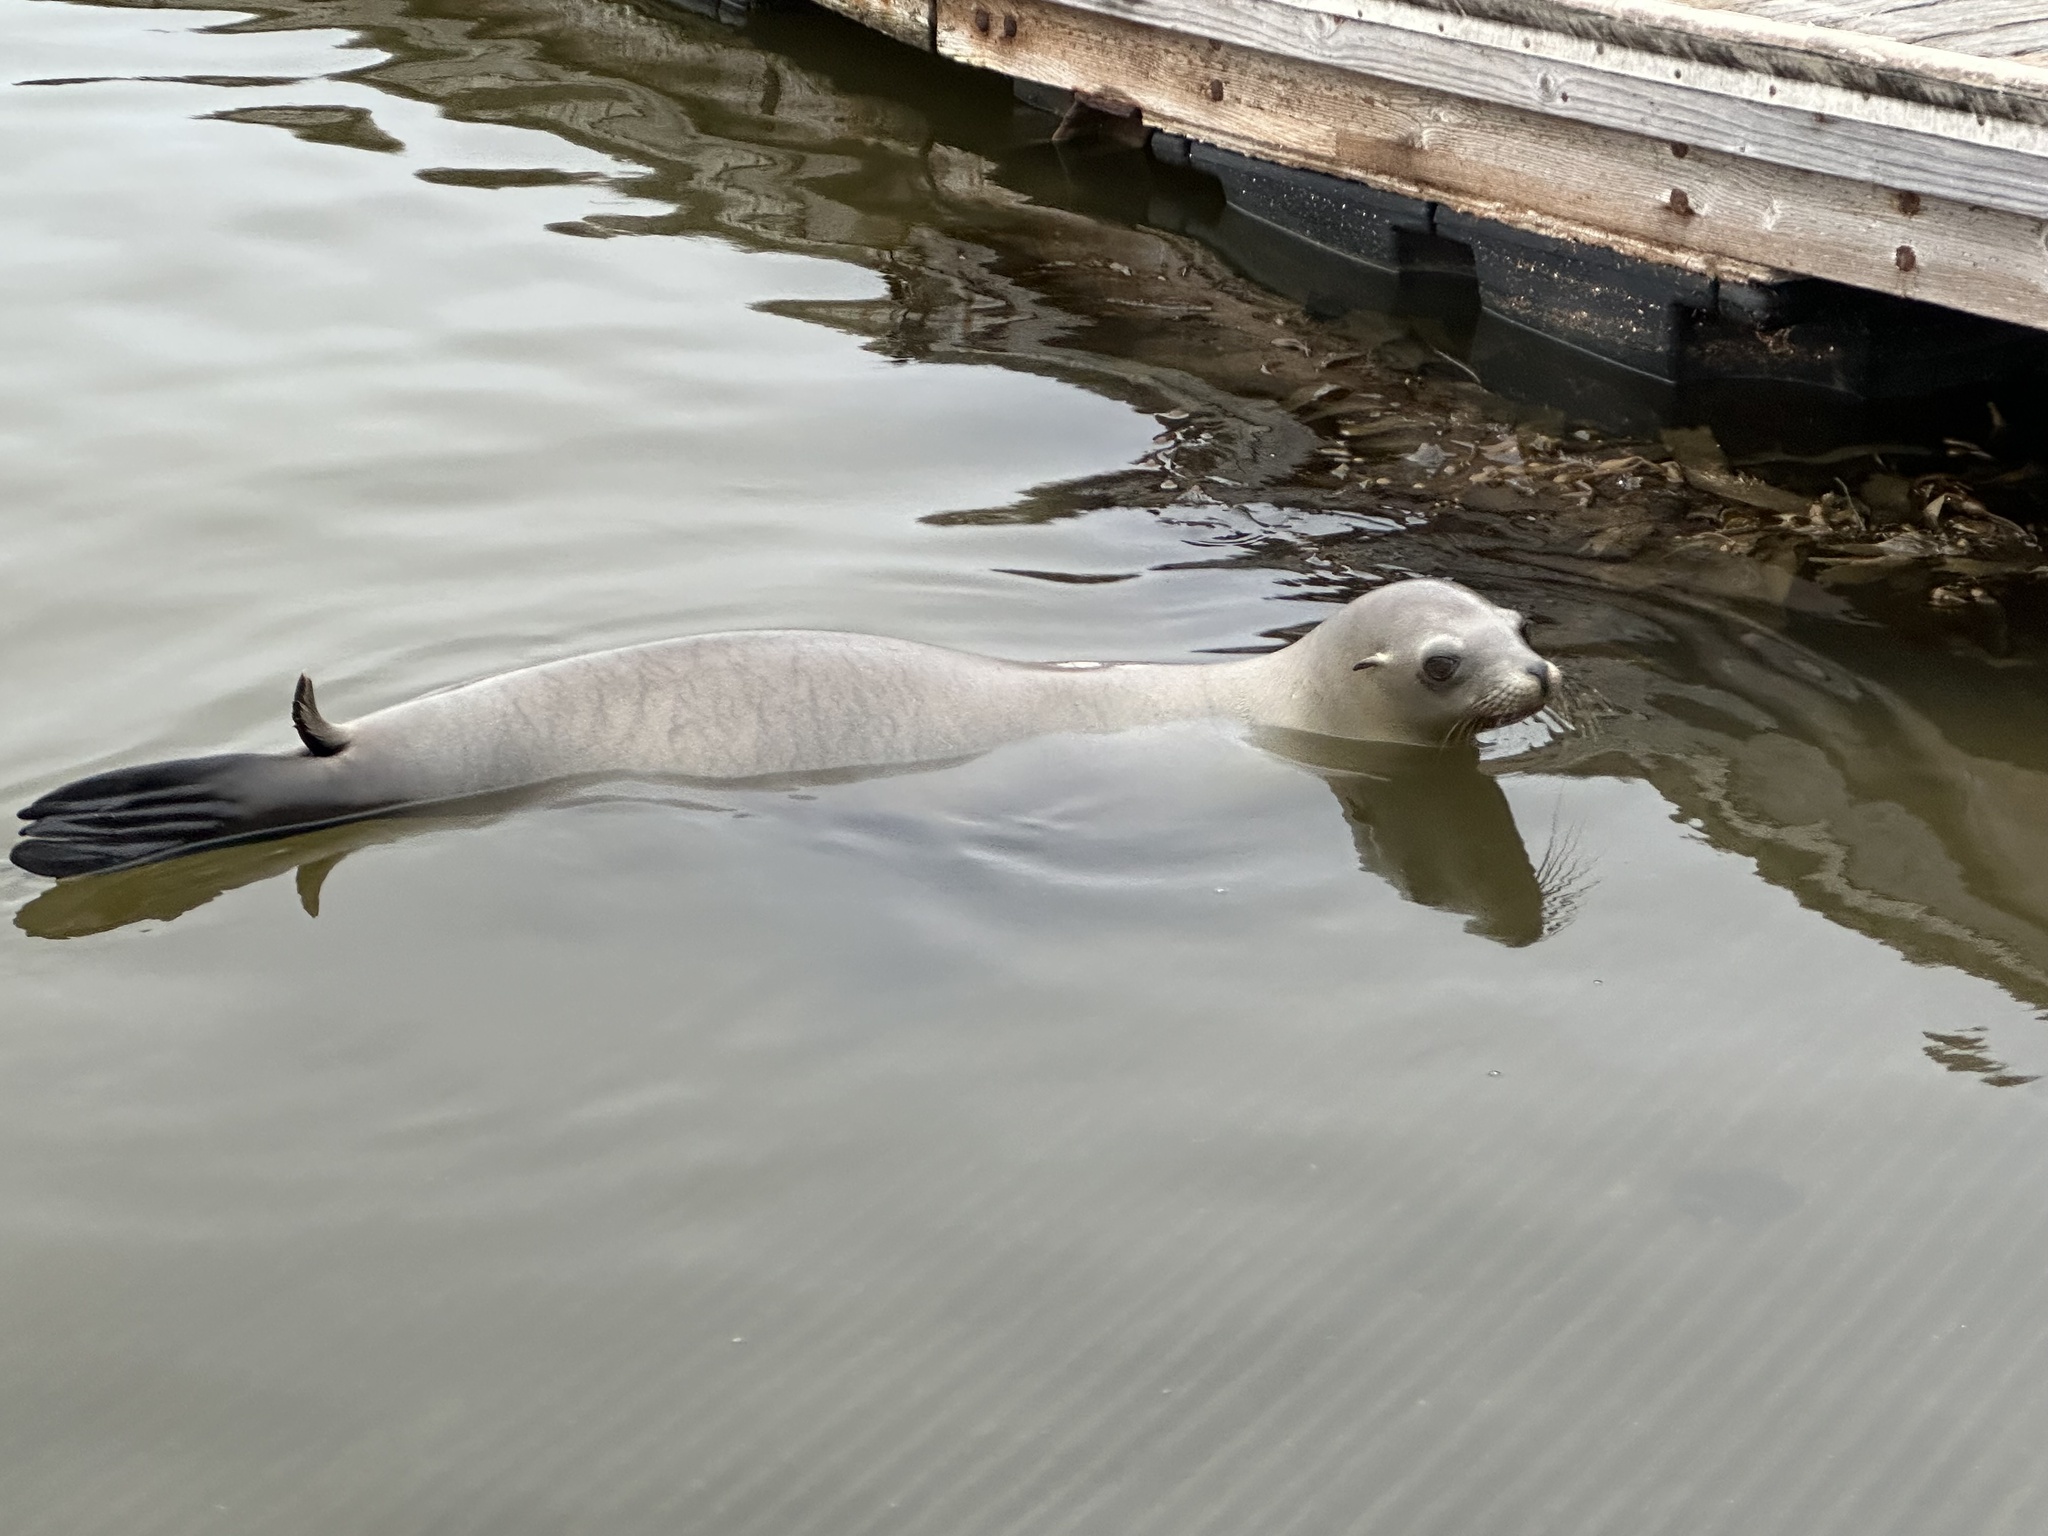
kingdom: Animalia
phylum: Chordata
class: Mammalia
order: Carnivora
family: Otariidae
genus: Zalophus
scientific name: Zalophus californianus
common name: California sea lion
